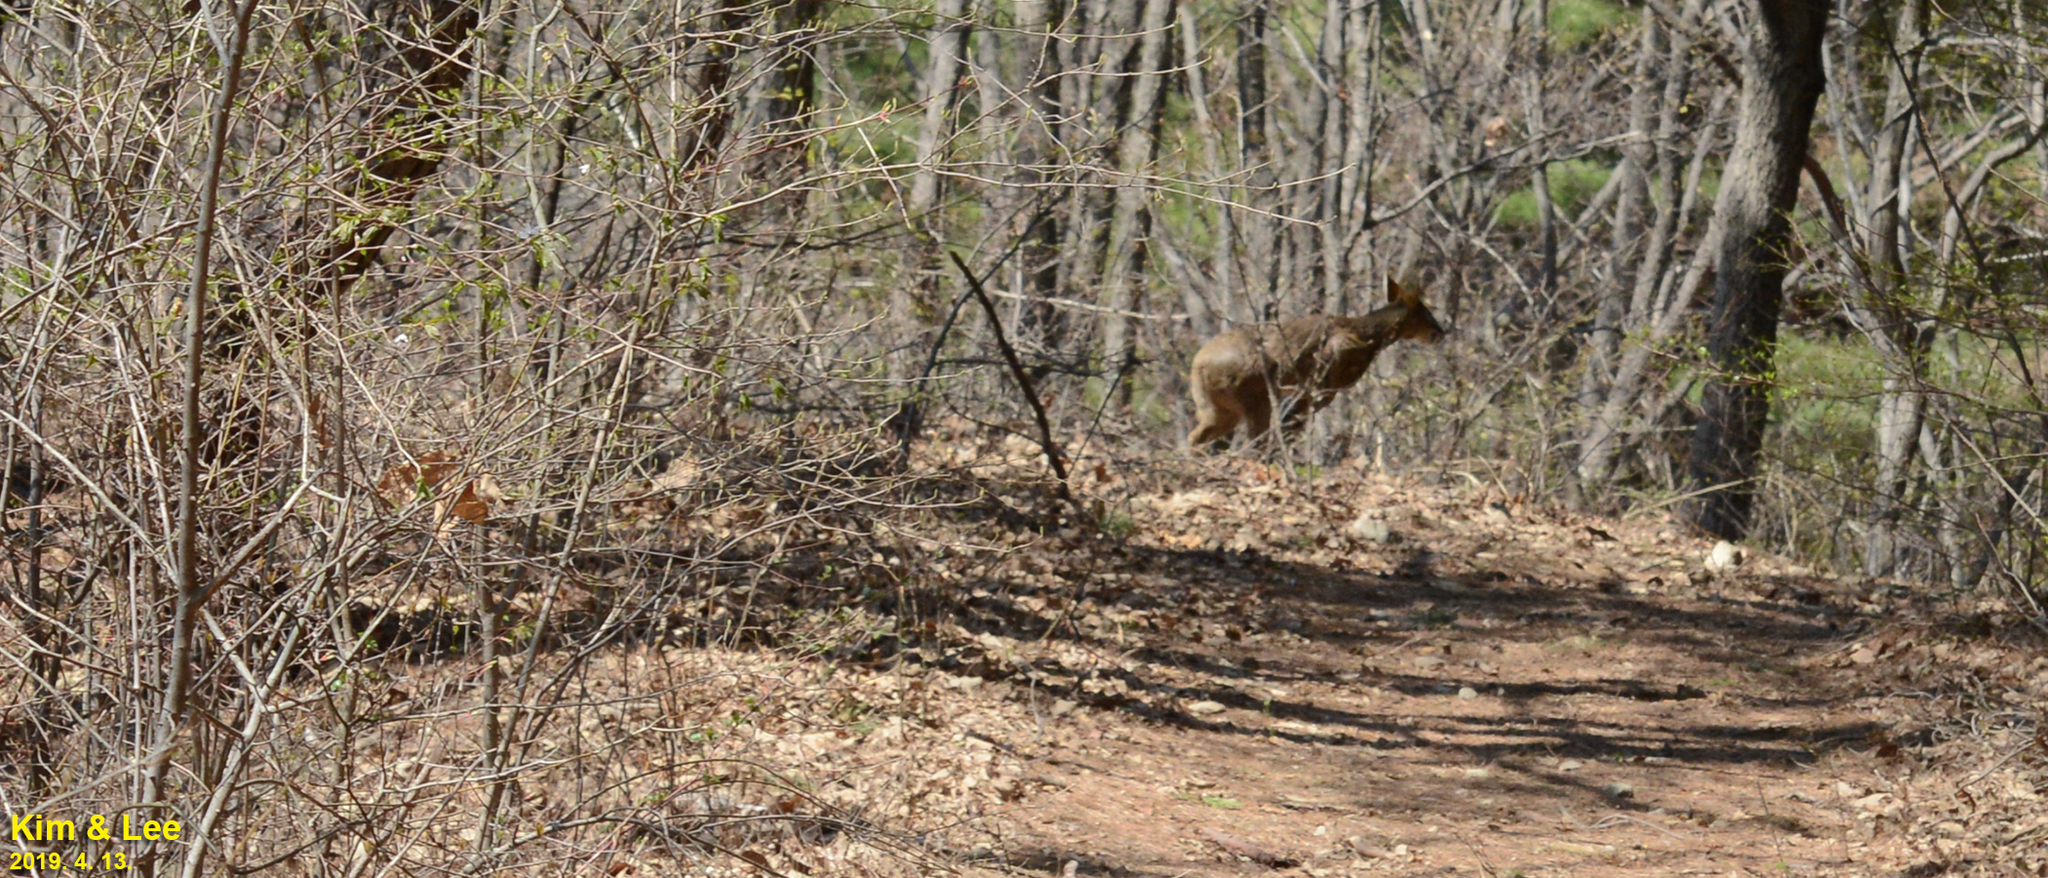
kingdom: Animalia
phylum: Chordata
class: Mammalia
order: Artiodactyla
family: Cervidae
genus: Hydropotes
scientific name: Hydropotes inermis
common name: Chinese water deer
